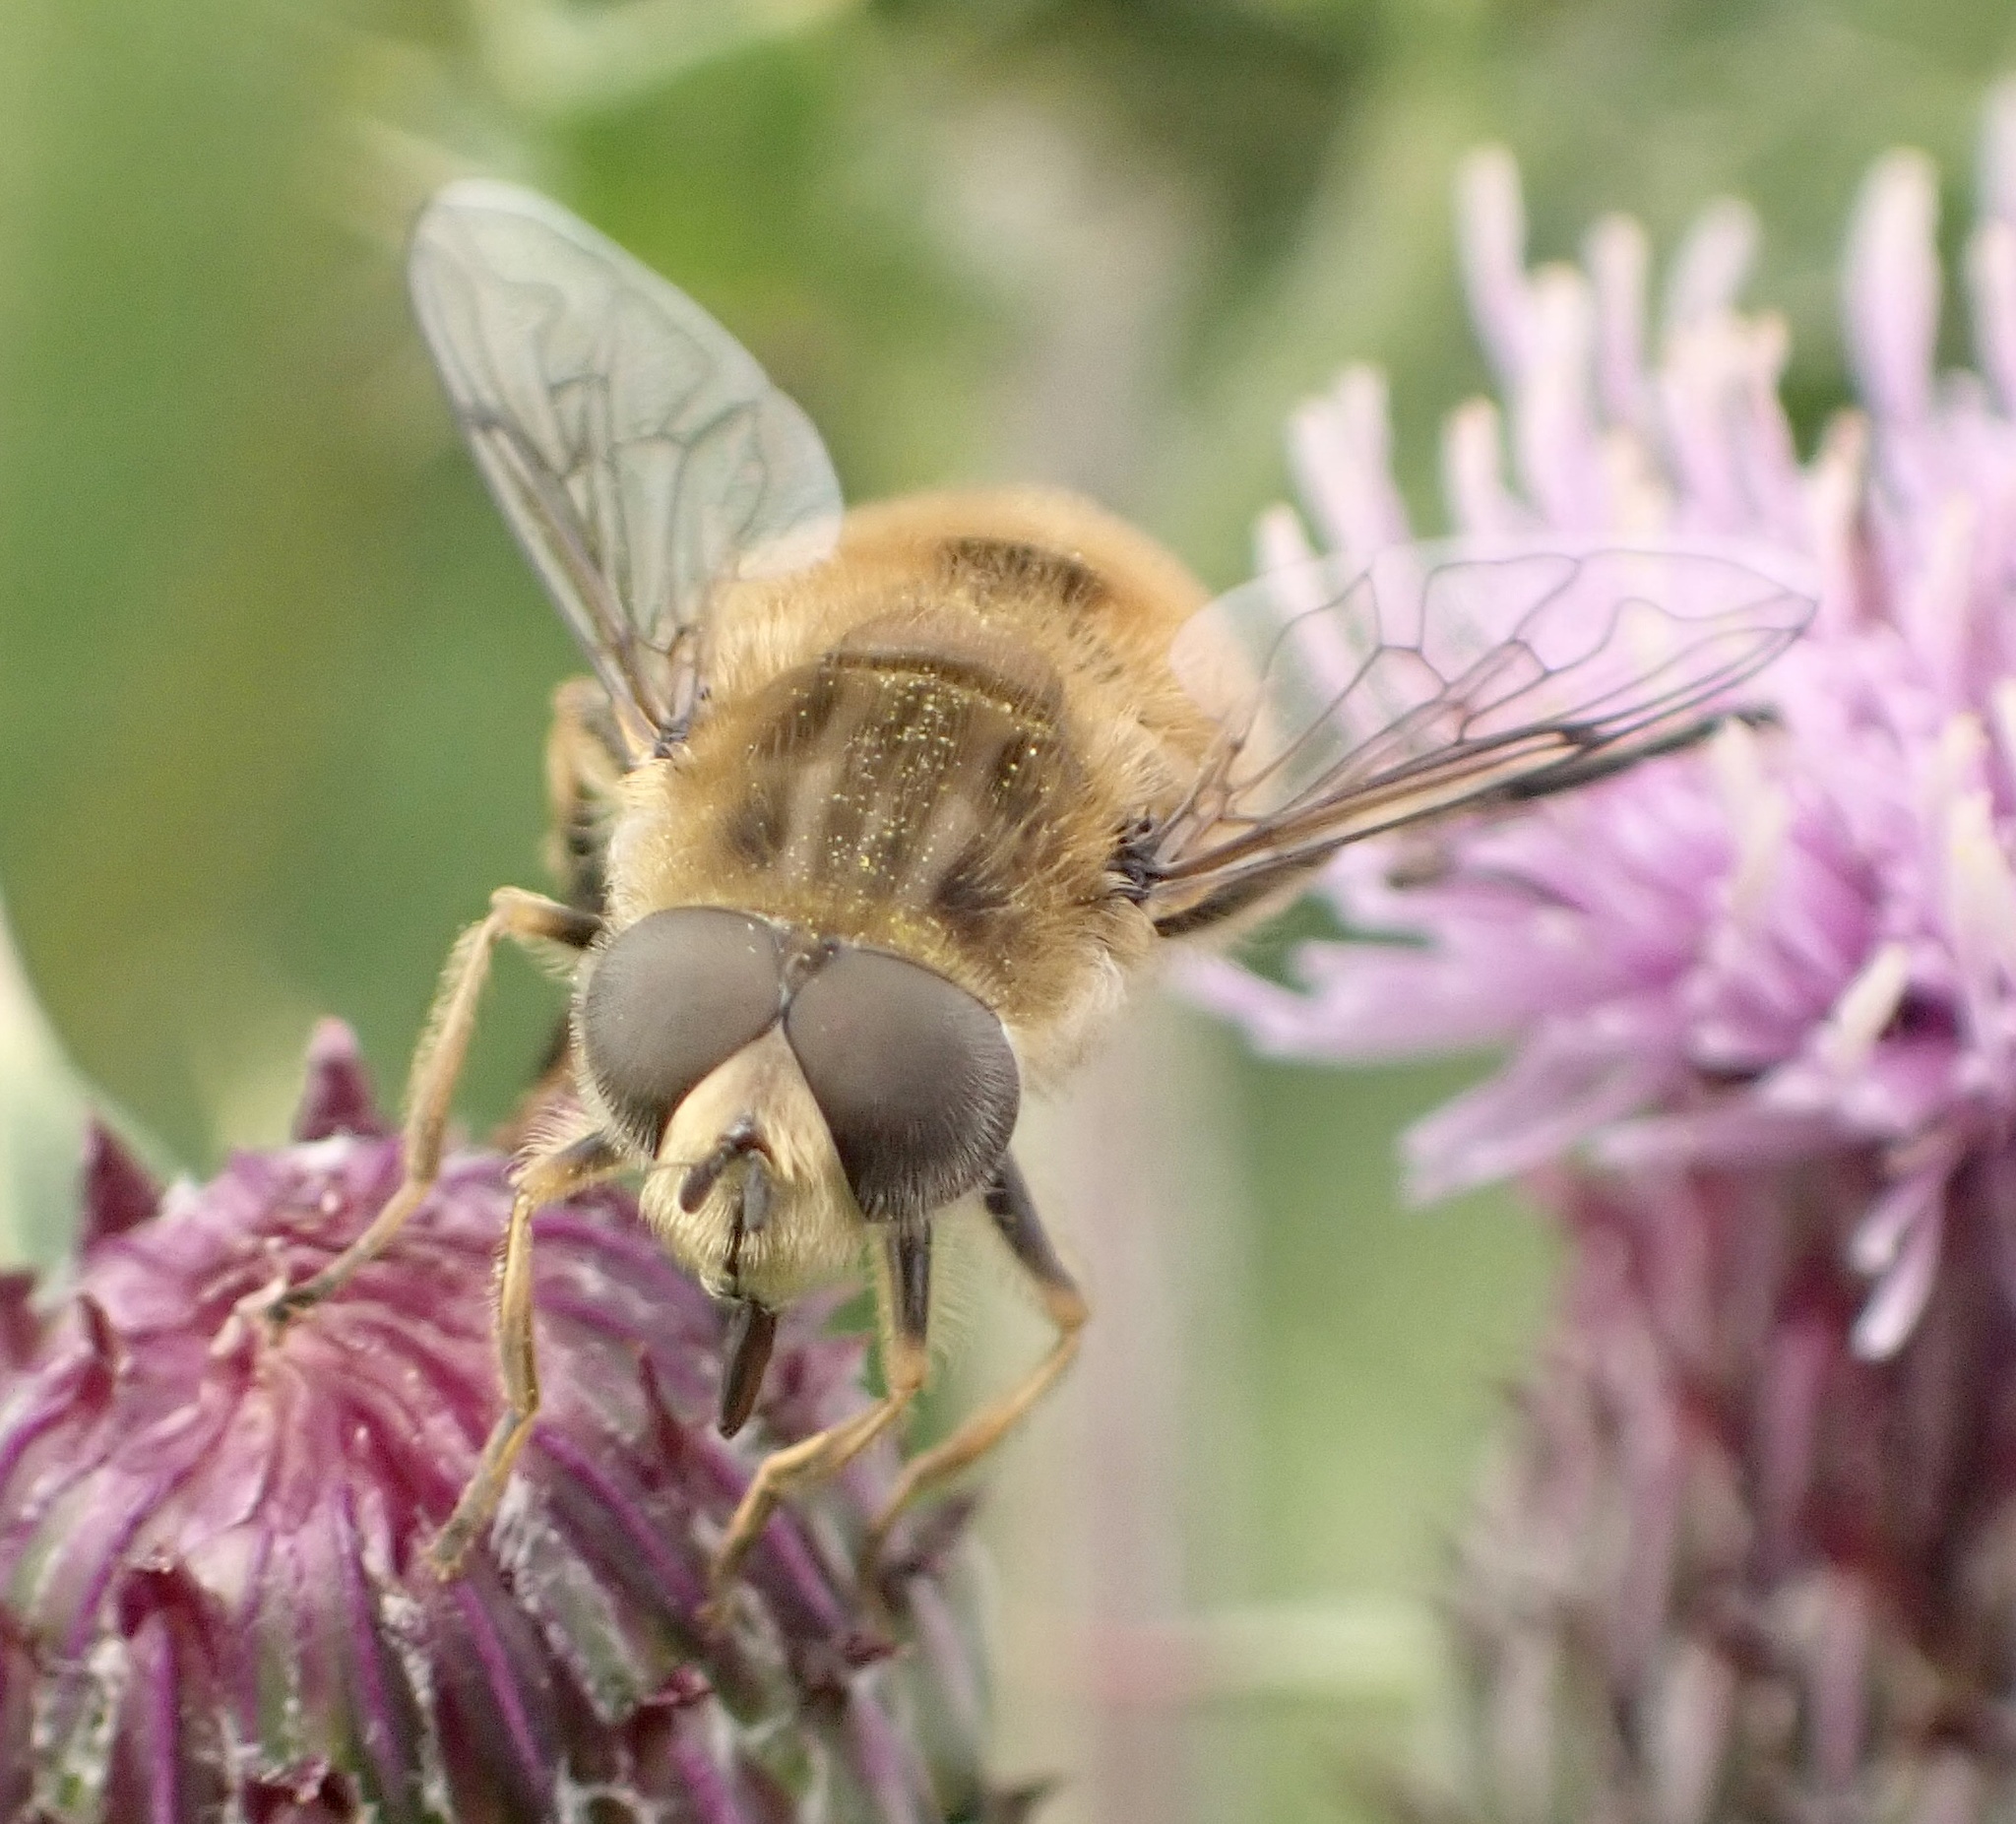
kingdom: Animalia
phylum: Arthropoda
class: Insecta
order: Diptera
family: Syrphidae
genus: Eristalis
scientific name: Eristalis abusivus
